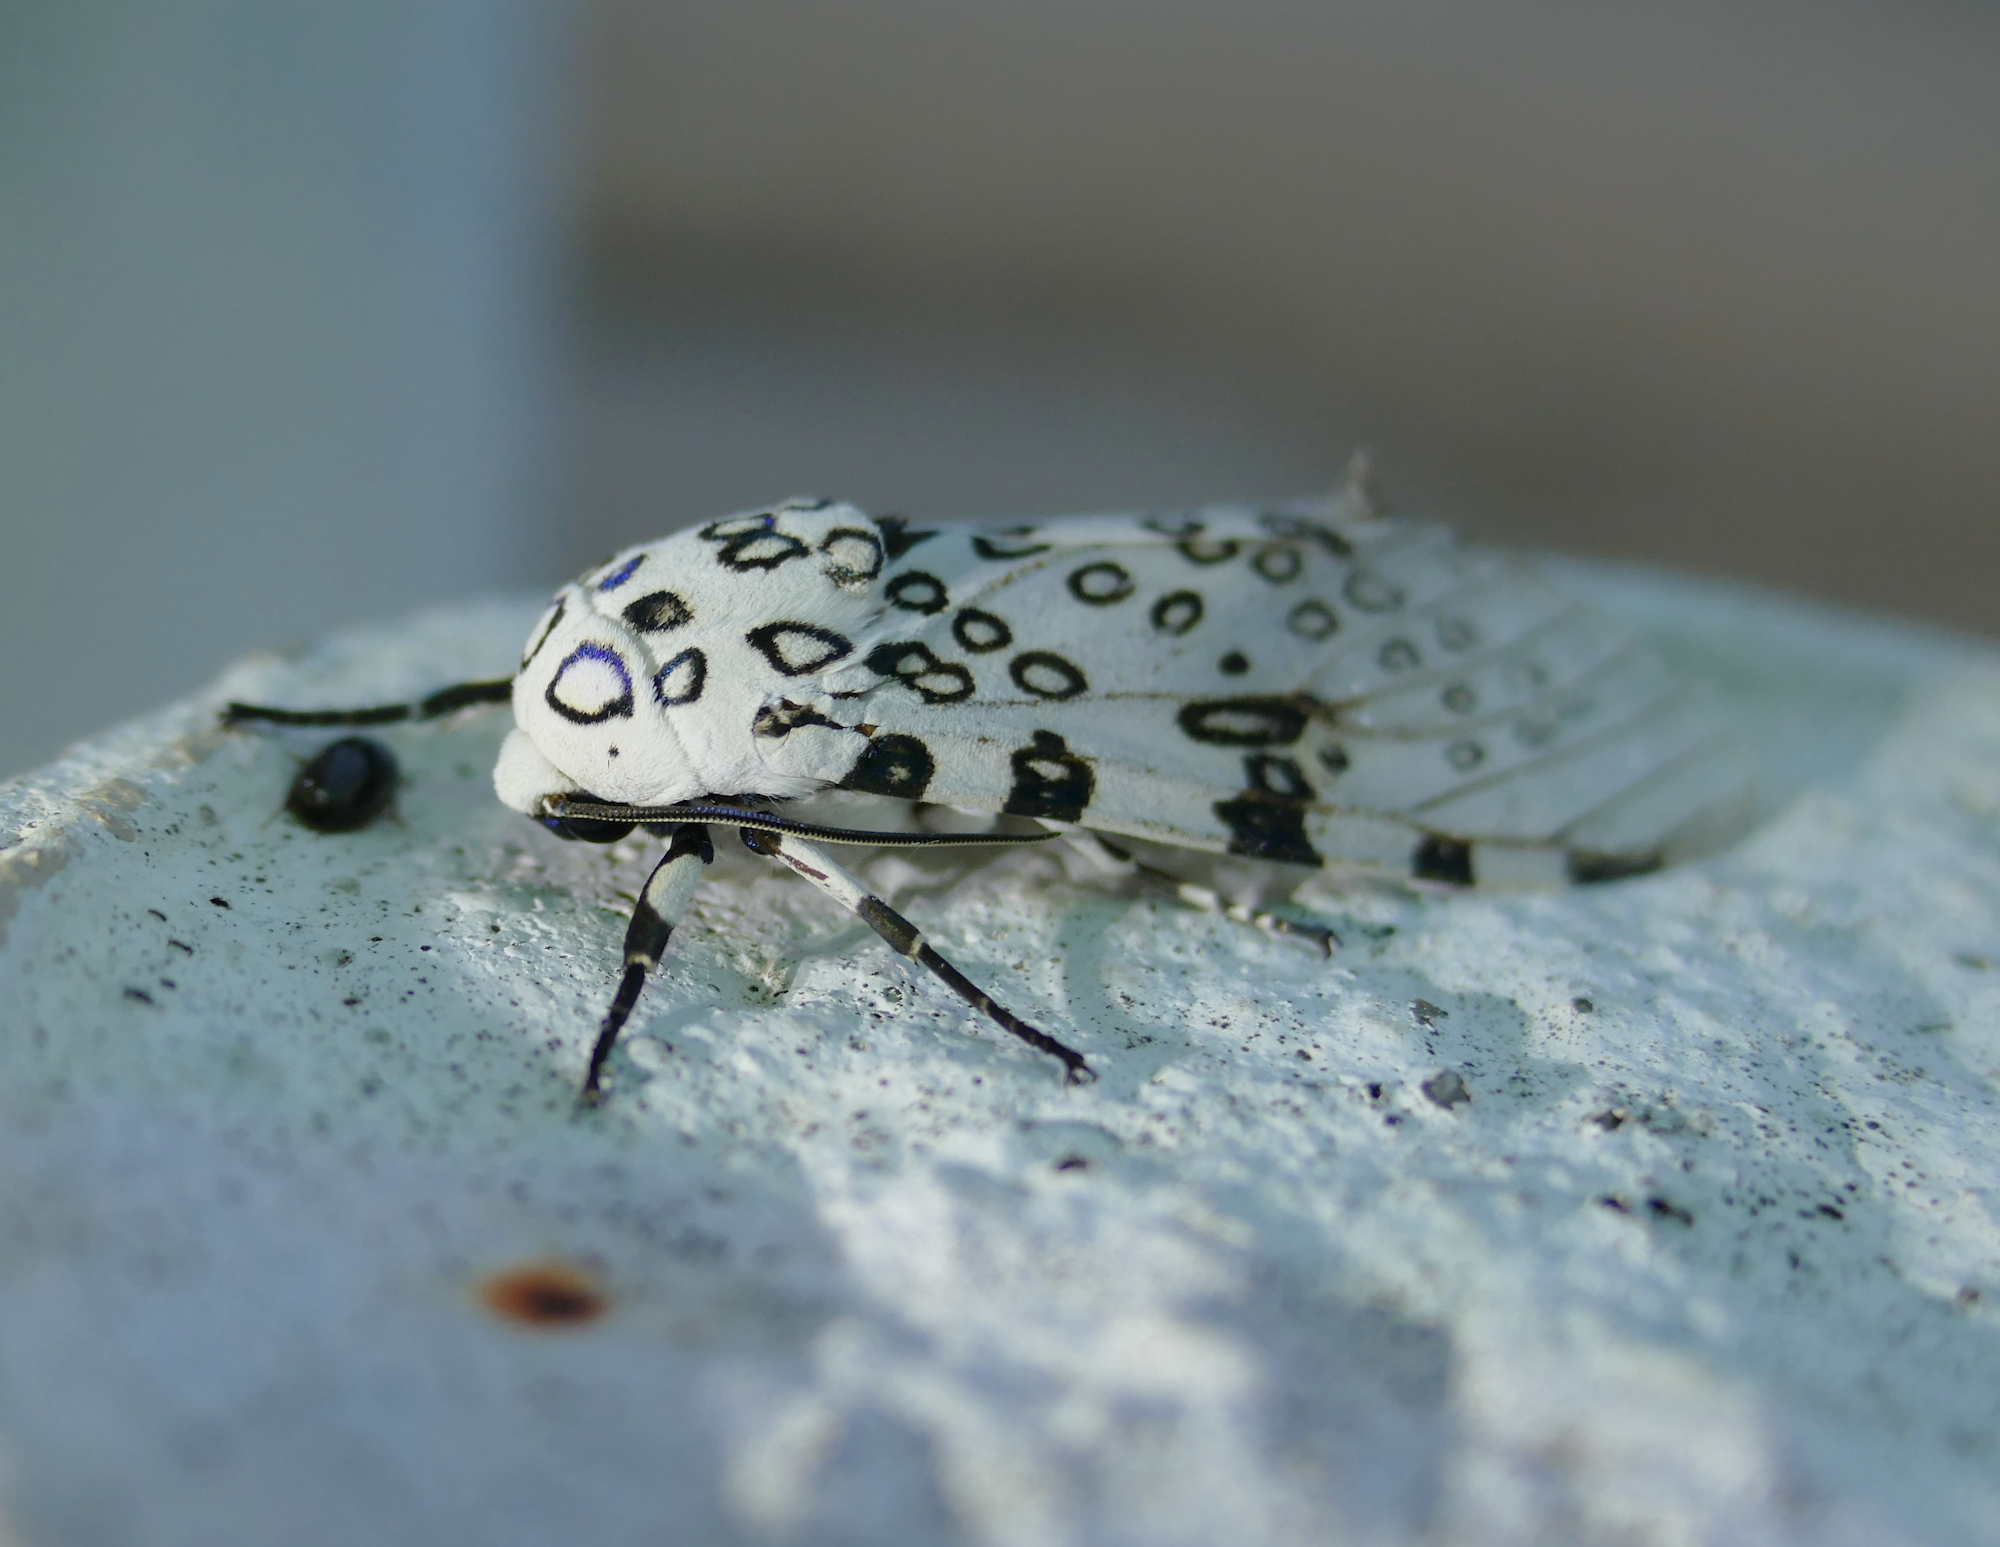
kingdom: Animalia
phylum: Arthropoda
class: Insecta
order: Lepidoptera
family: Erebidae
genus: Hypercompe
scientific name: Hypercompe scribonia
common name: Giant leopard moth
